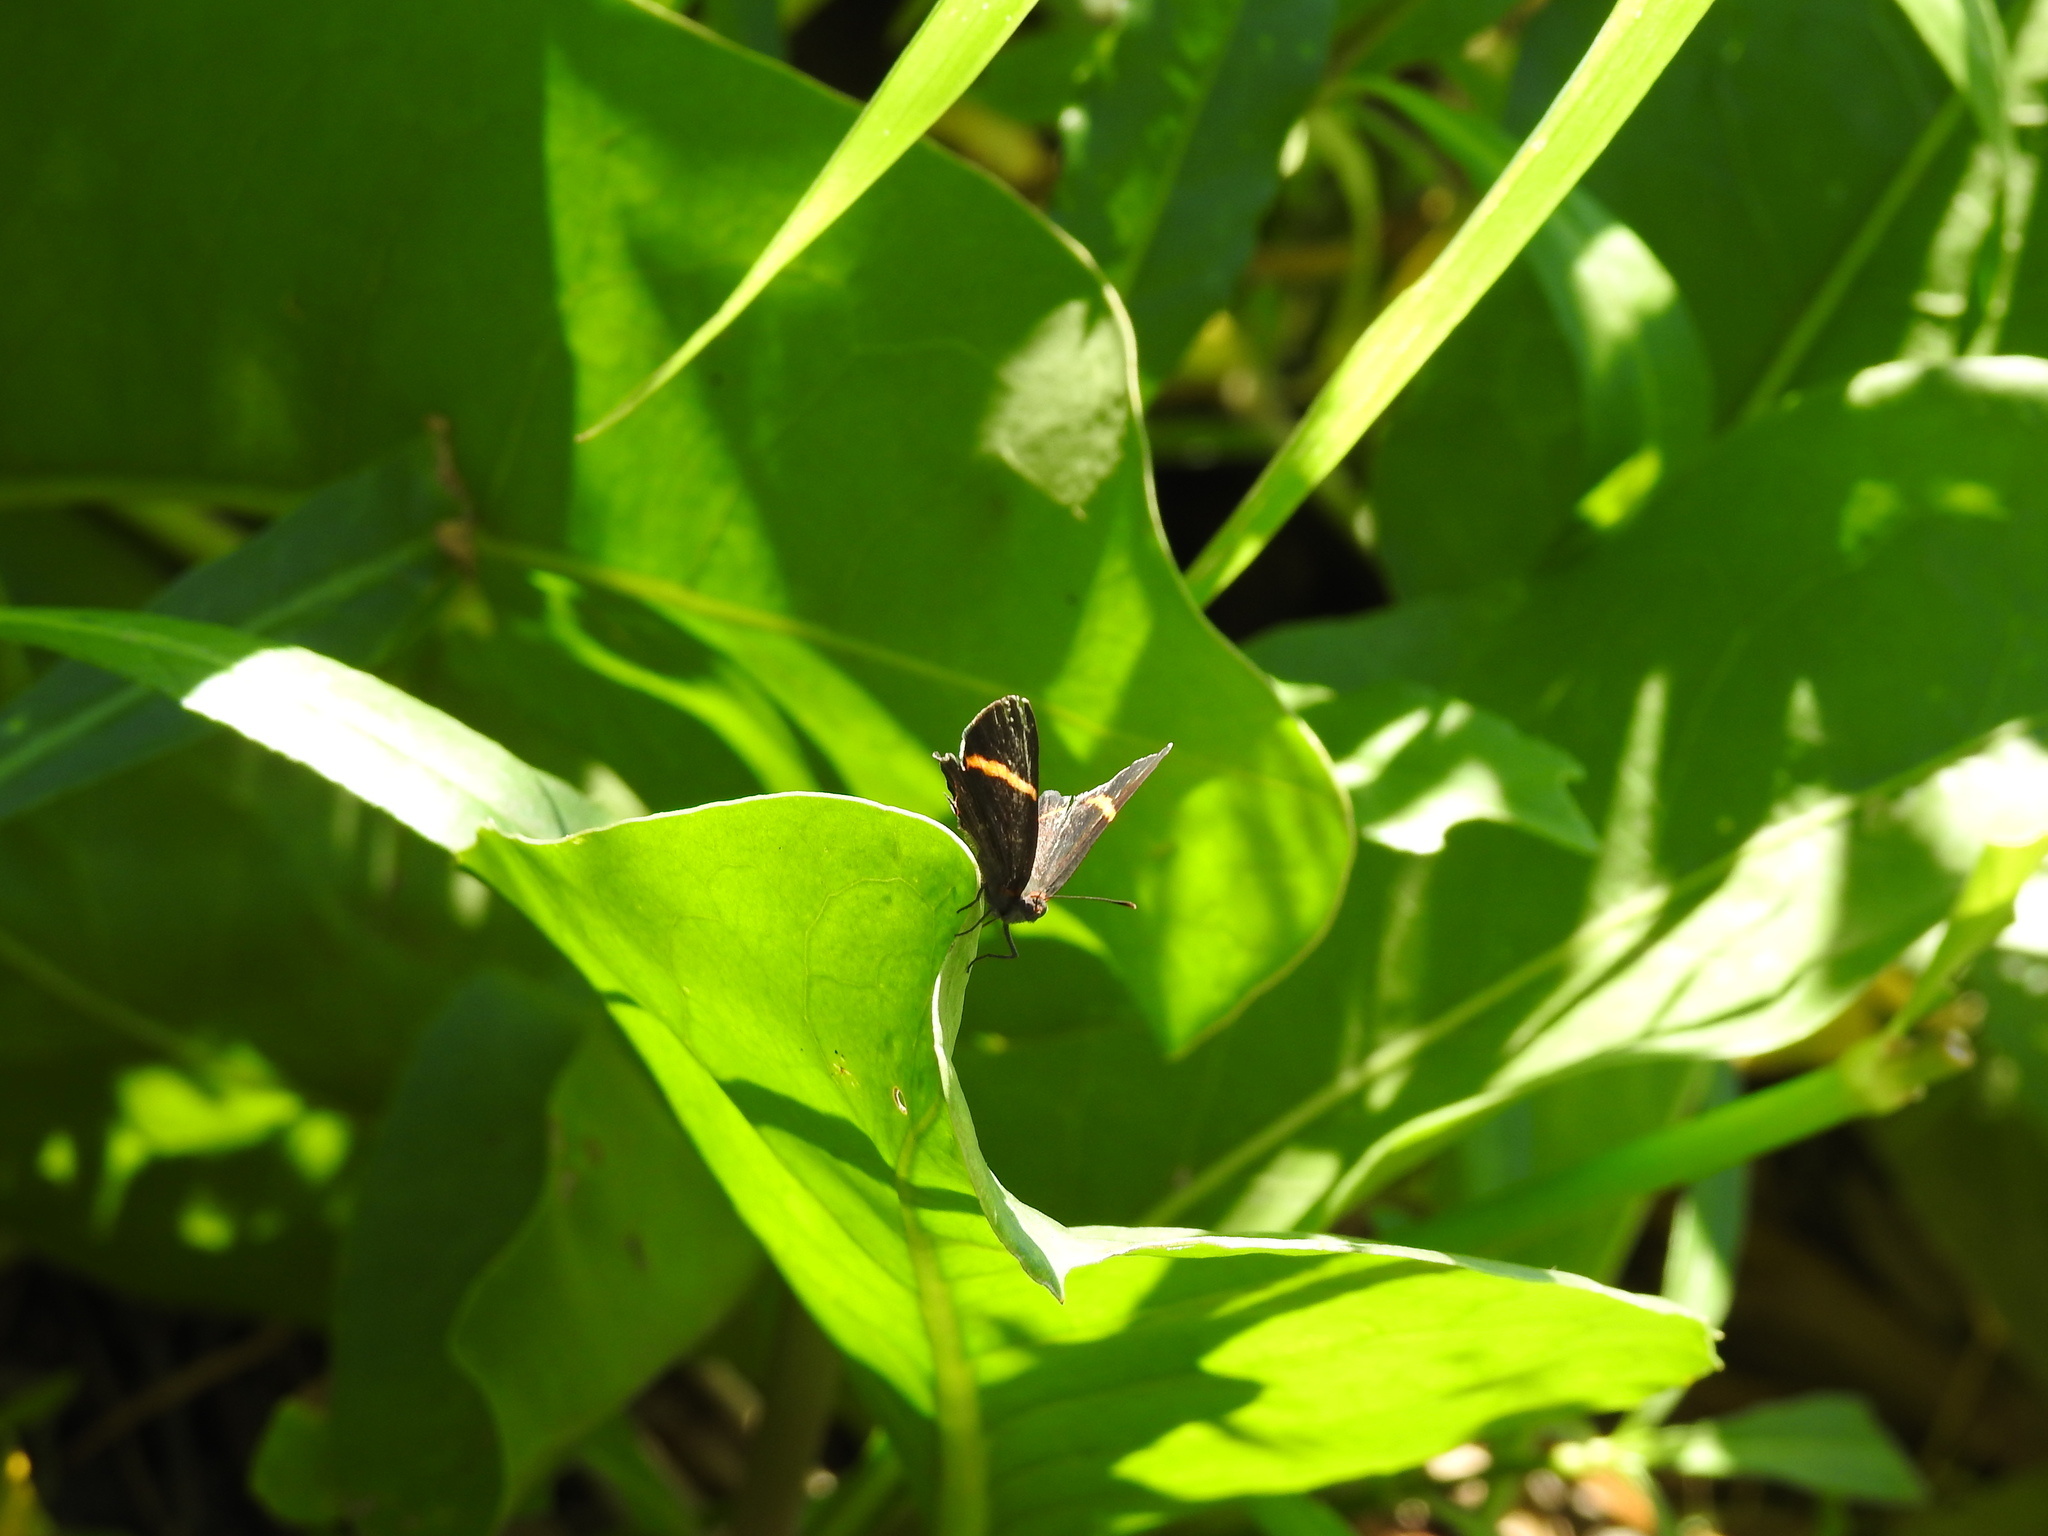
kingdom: Animalia
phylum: Arthropoda
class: Insecta
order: Lepidoptera
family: Riodinidae
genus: Riodina
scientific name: Riodina lysippoides
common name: Little dancer metalmark
